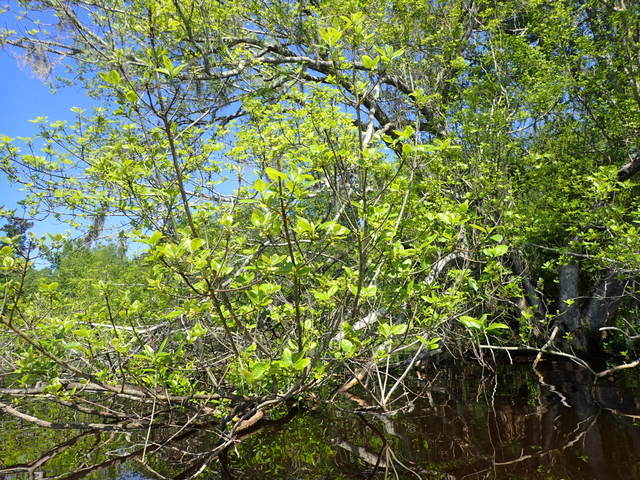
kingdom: Plantae
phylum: Tracheophyta
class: Magnoliopsida
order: Cornales
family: Nyssaceae
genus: Nyssa
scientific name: Nyssa ogeche
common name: Ogeechee tupelo
